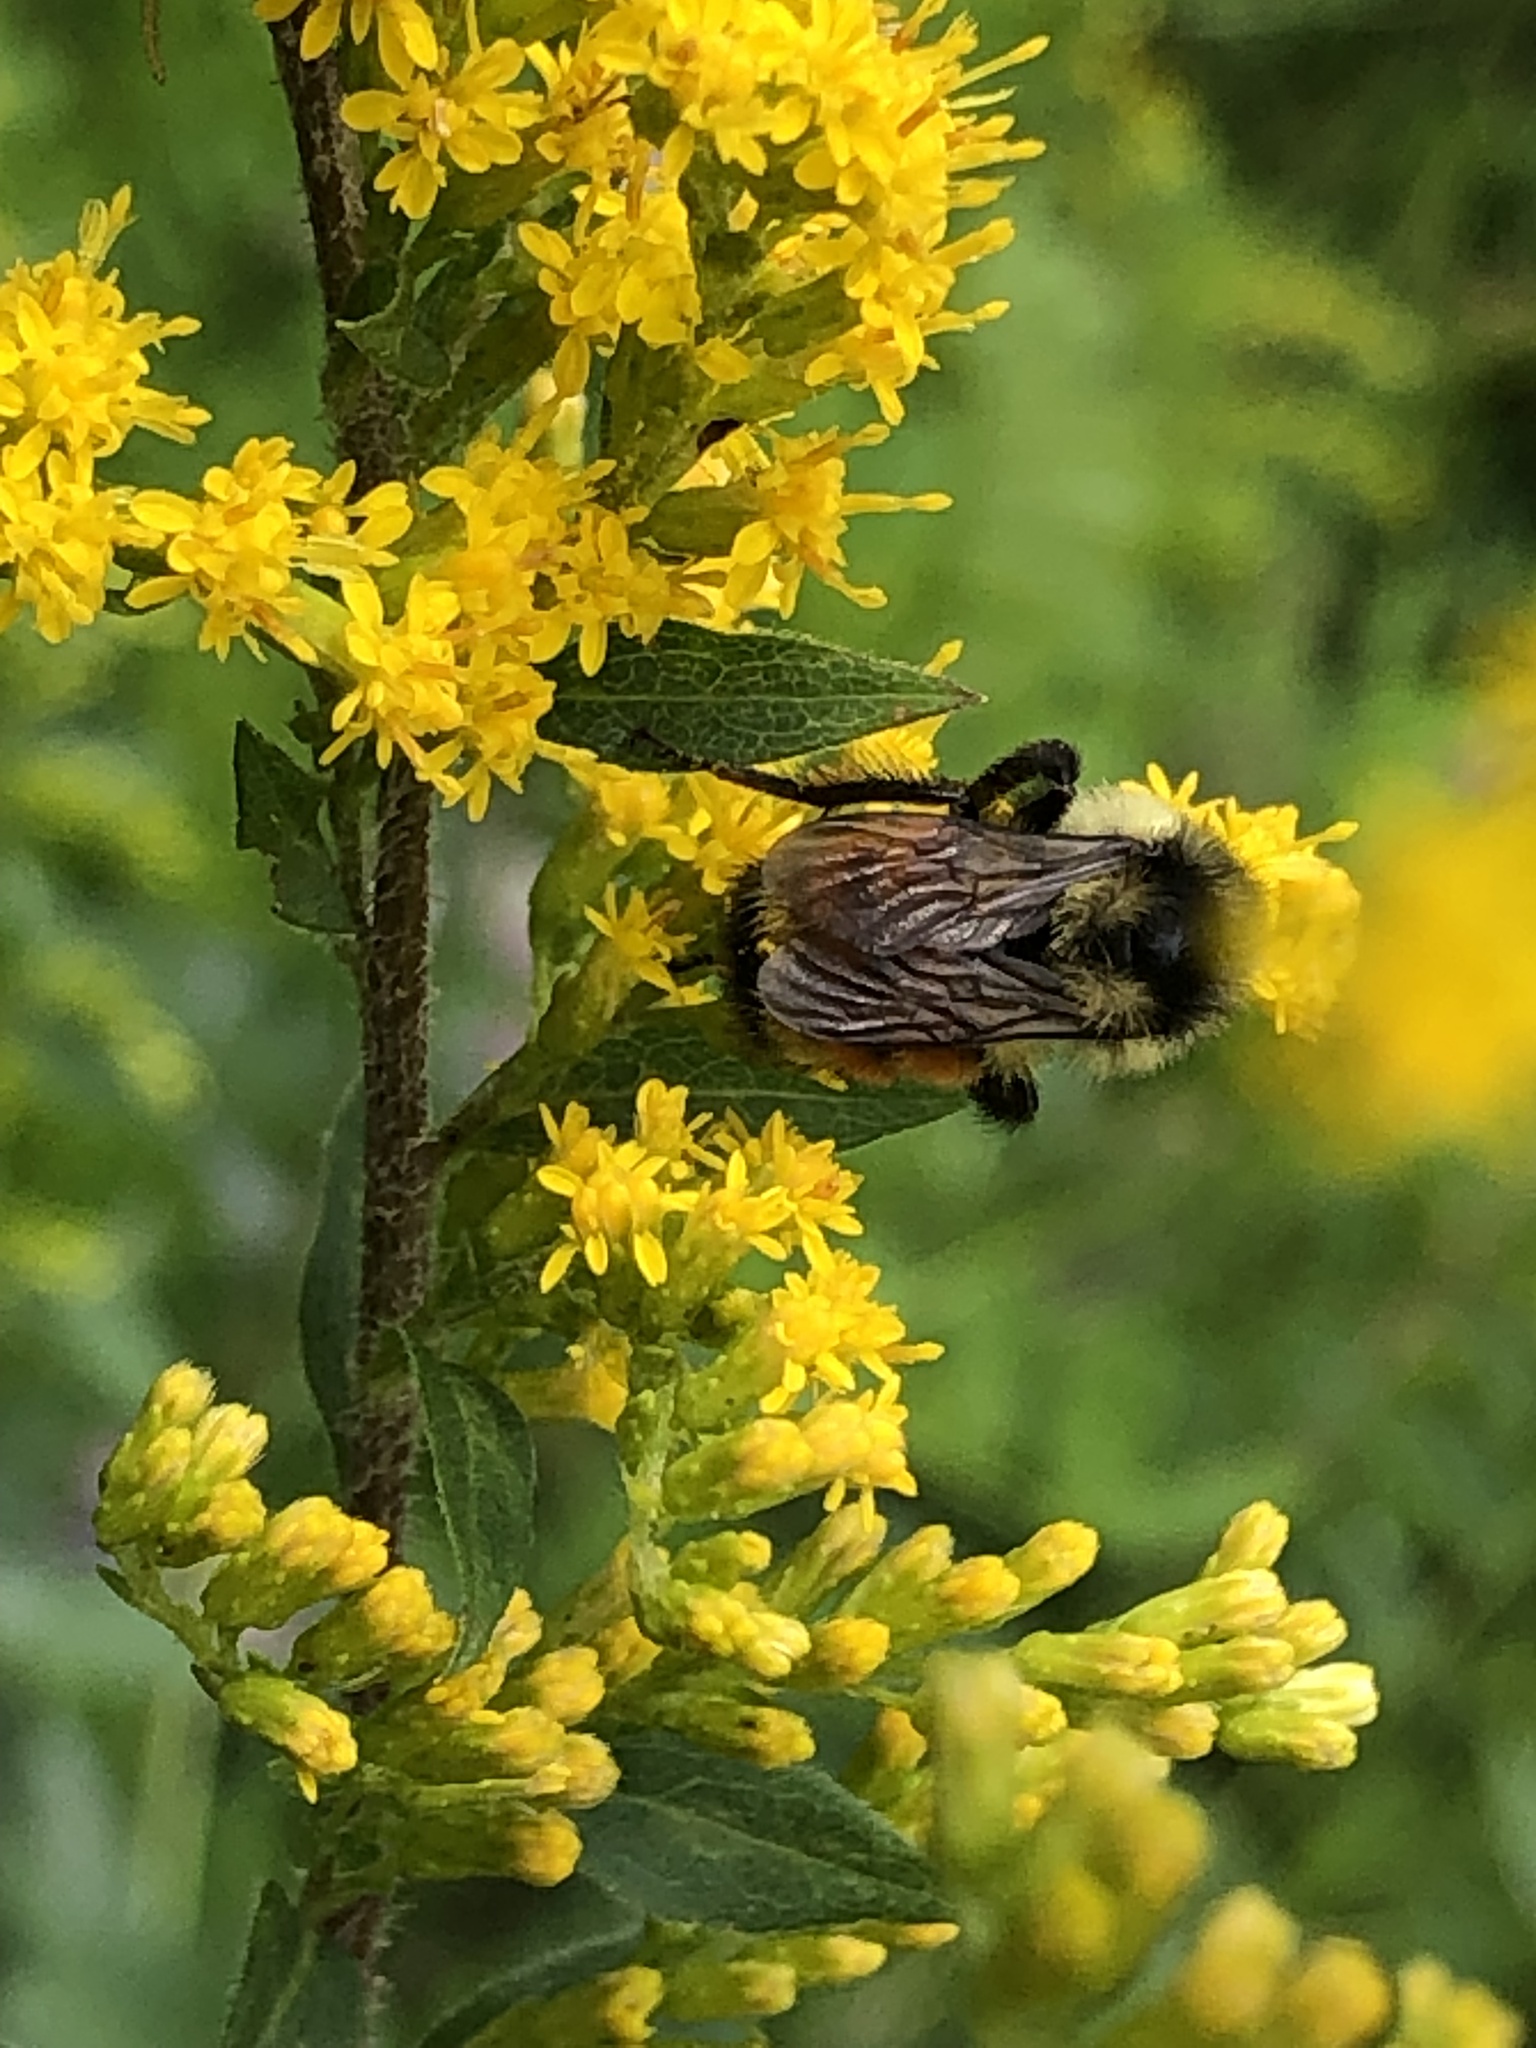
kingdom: Animalia
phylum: Arthropoda
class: Insecta
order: Hymenoptera
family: Apidae
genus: Bombus
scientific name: Bombus ternarius
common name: Tri-colored bumble bee
